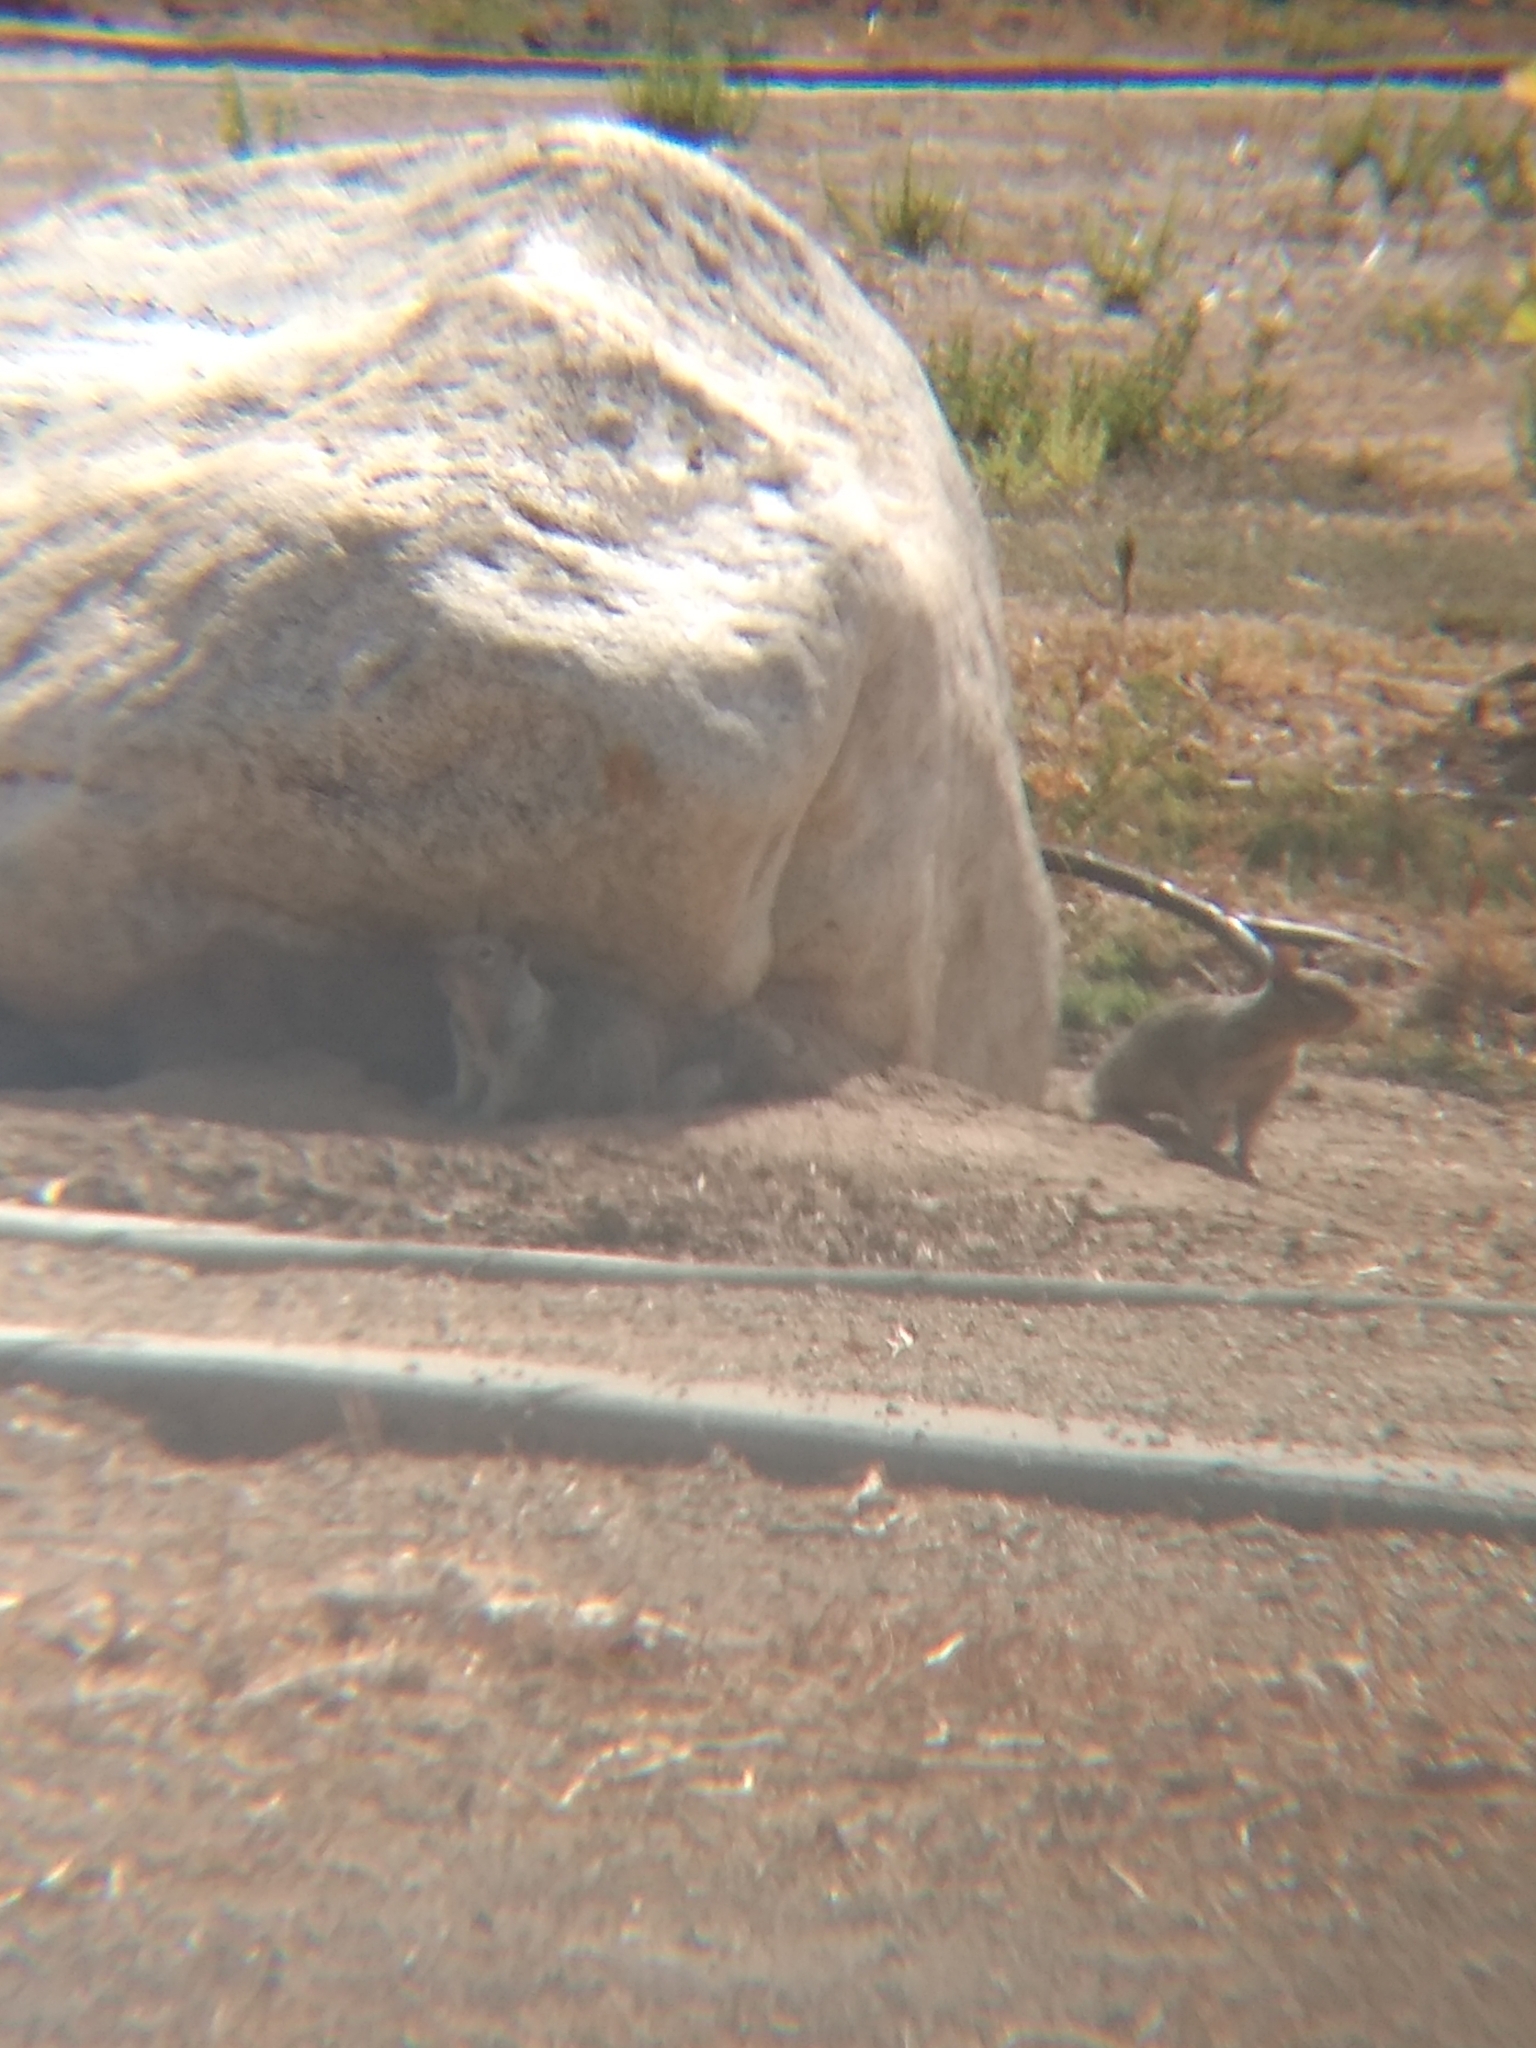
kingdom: Animalia
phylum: Chordata
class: Mammalia
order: Rodentia
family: Sciuridae
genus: Otospermophilus
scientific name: Otospermophilus beecheyi
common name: California ground squirrel
